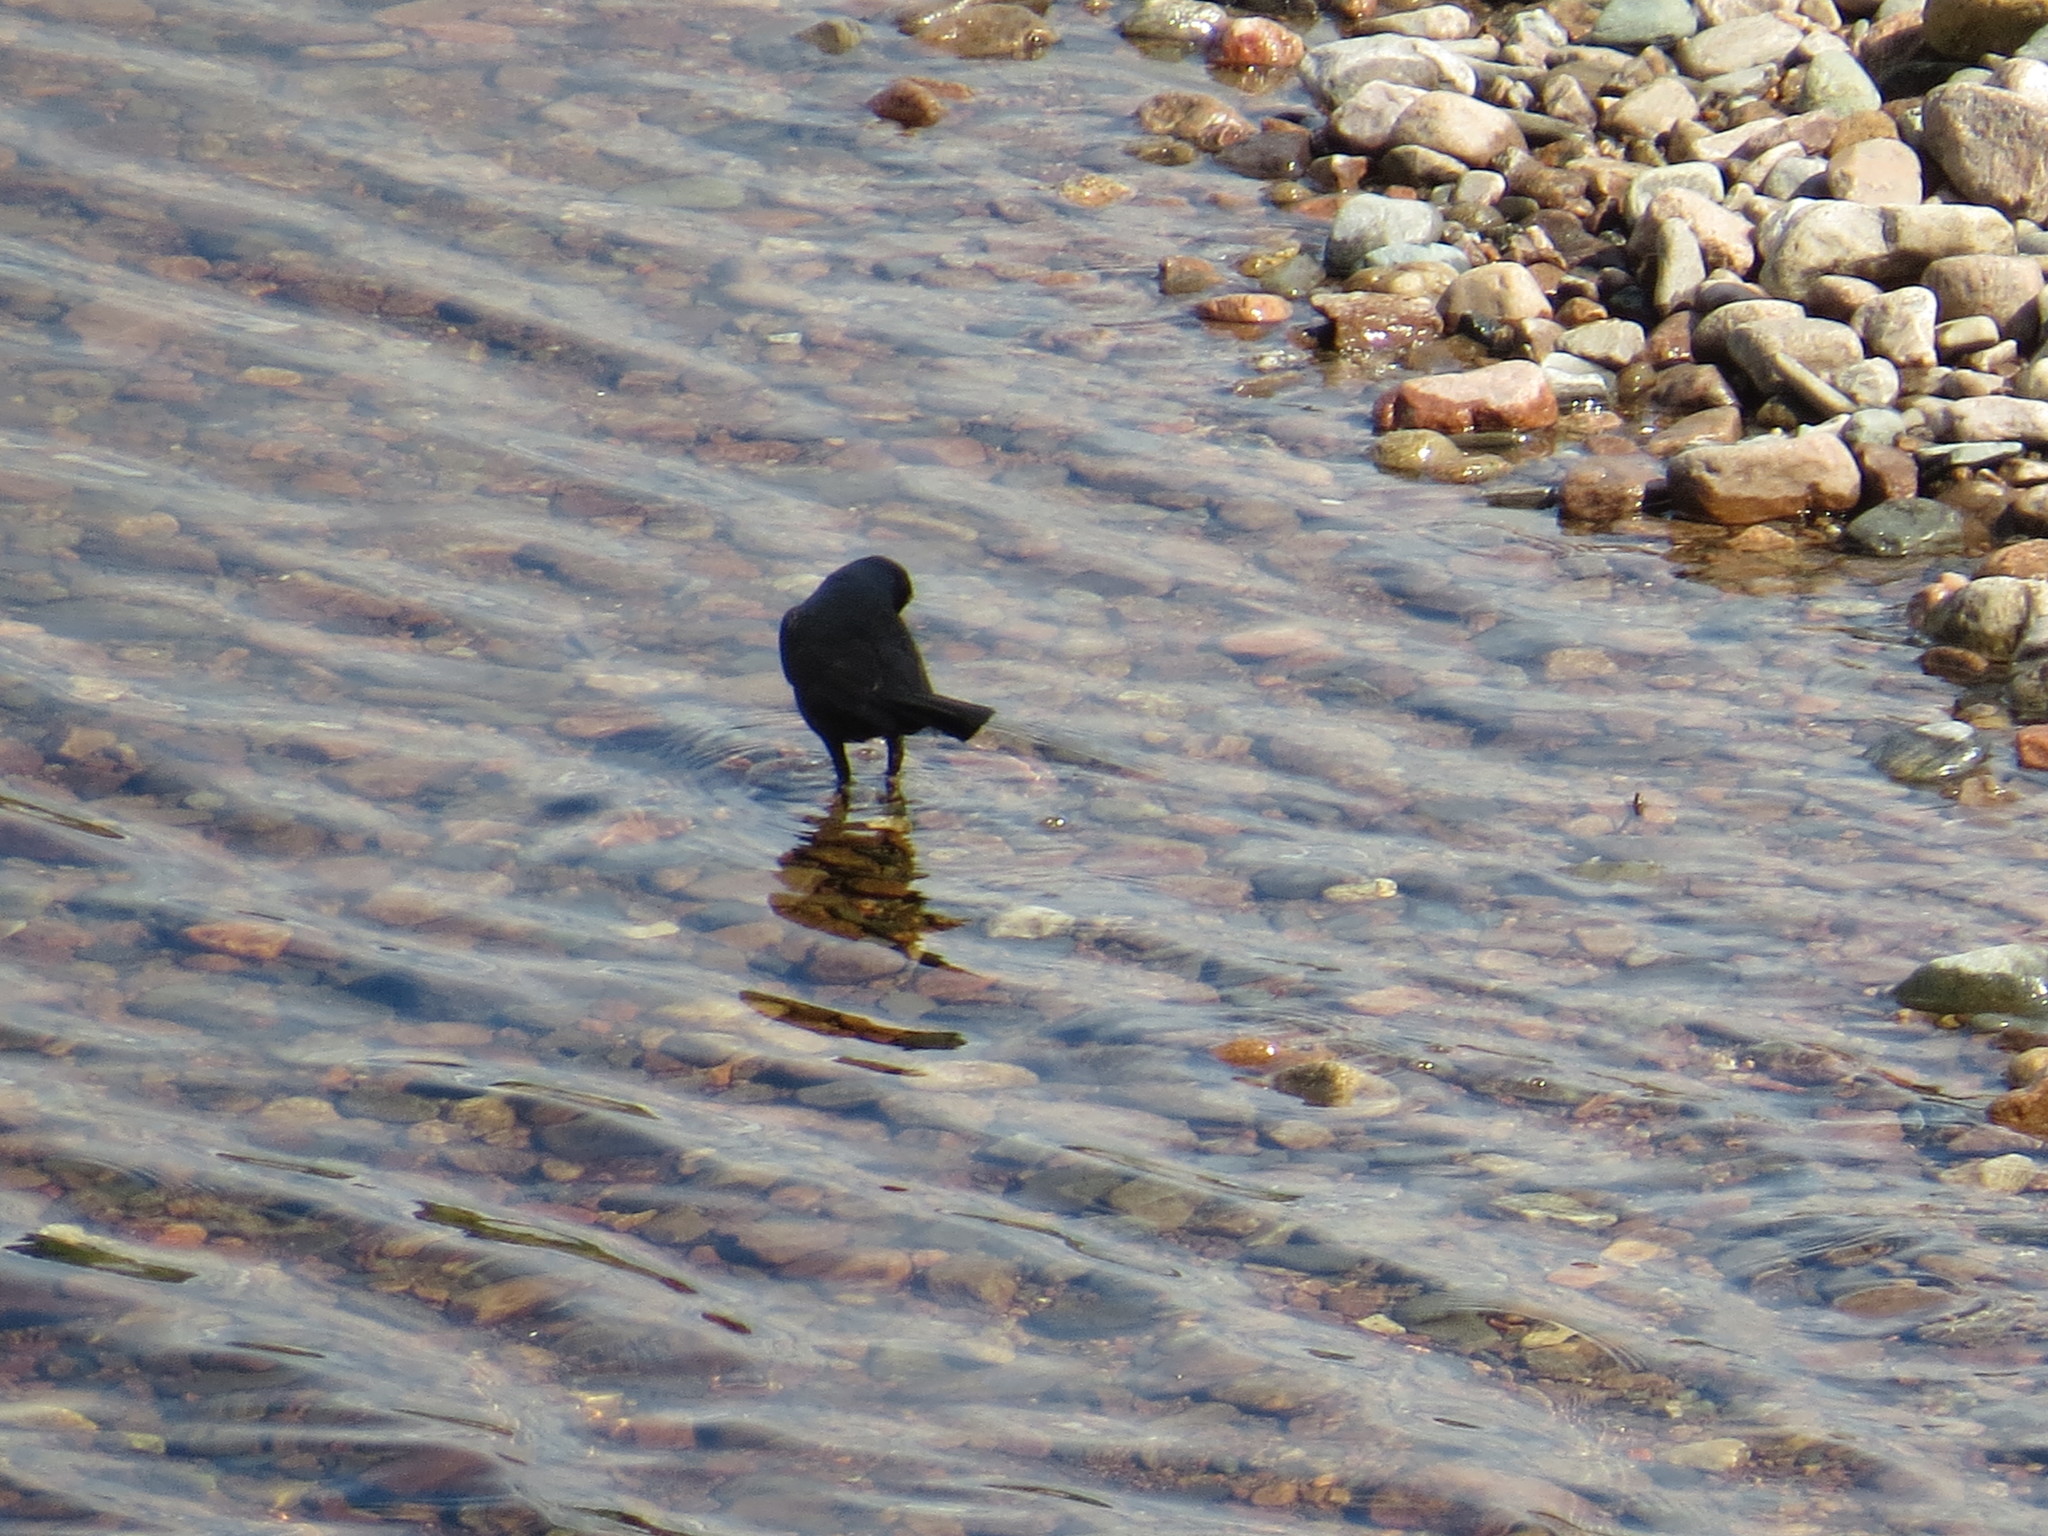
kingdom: Animalia
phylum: Chordata
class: Aves
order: Passeriformes
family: Icteridae
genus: Quiscalus
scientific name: Quiscalus quiscula
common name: Common grackle
